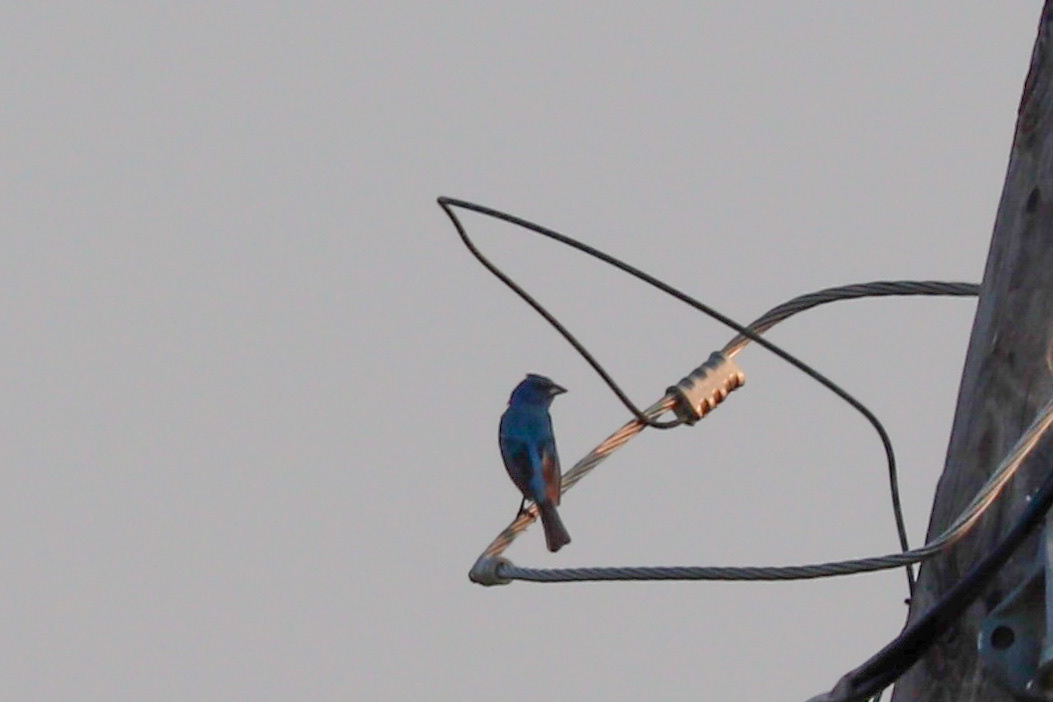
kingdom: Animalia
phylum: Chordata
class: Aves
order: Passeriformes
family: Cardinalidae
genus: Passerina
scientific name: Passerina cyanea
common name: Indigo bunting
